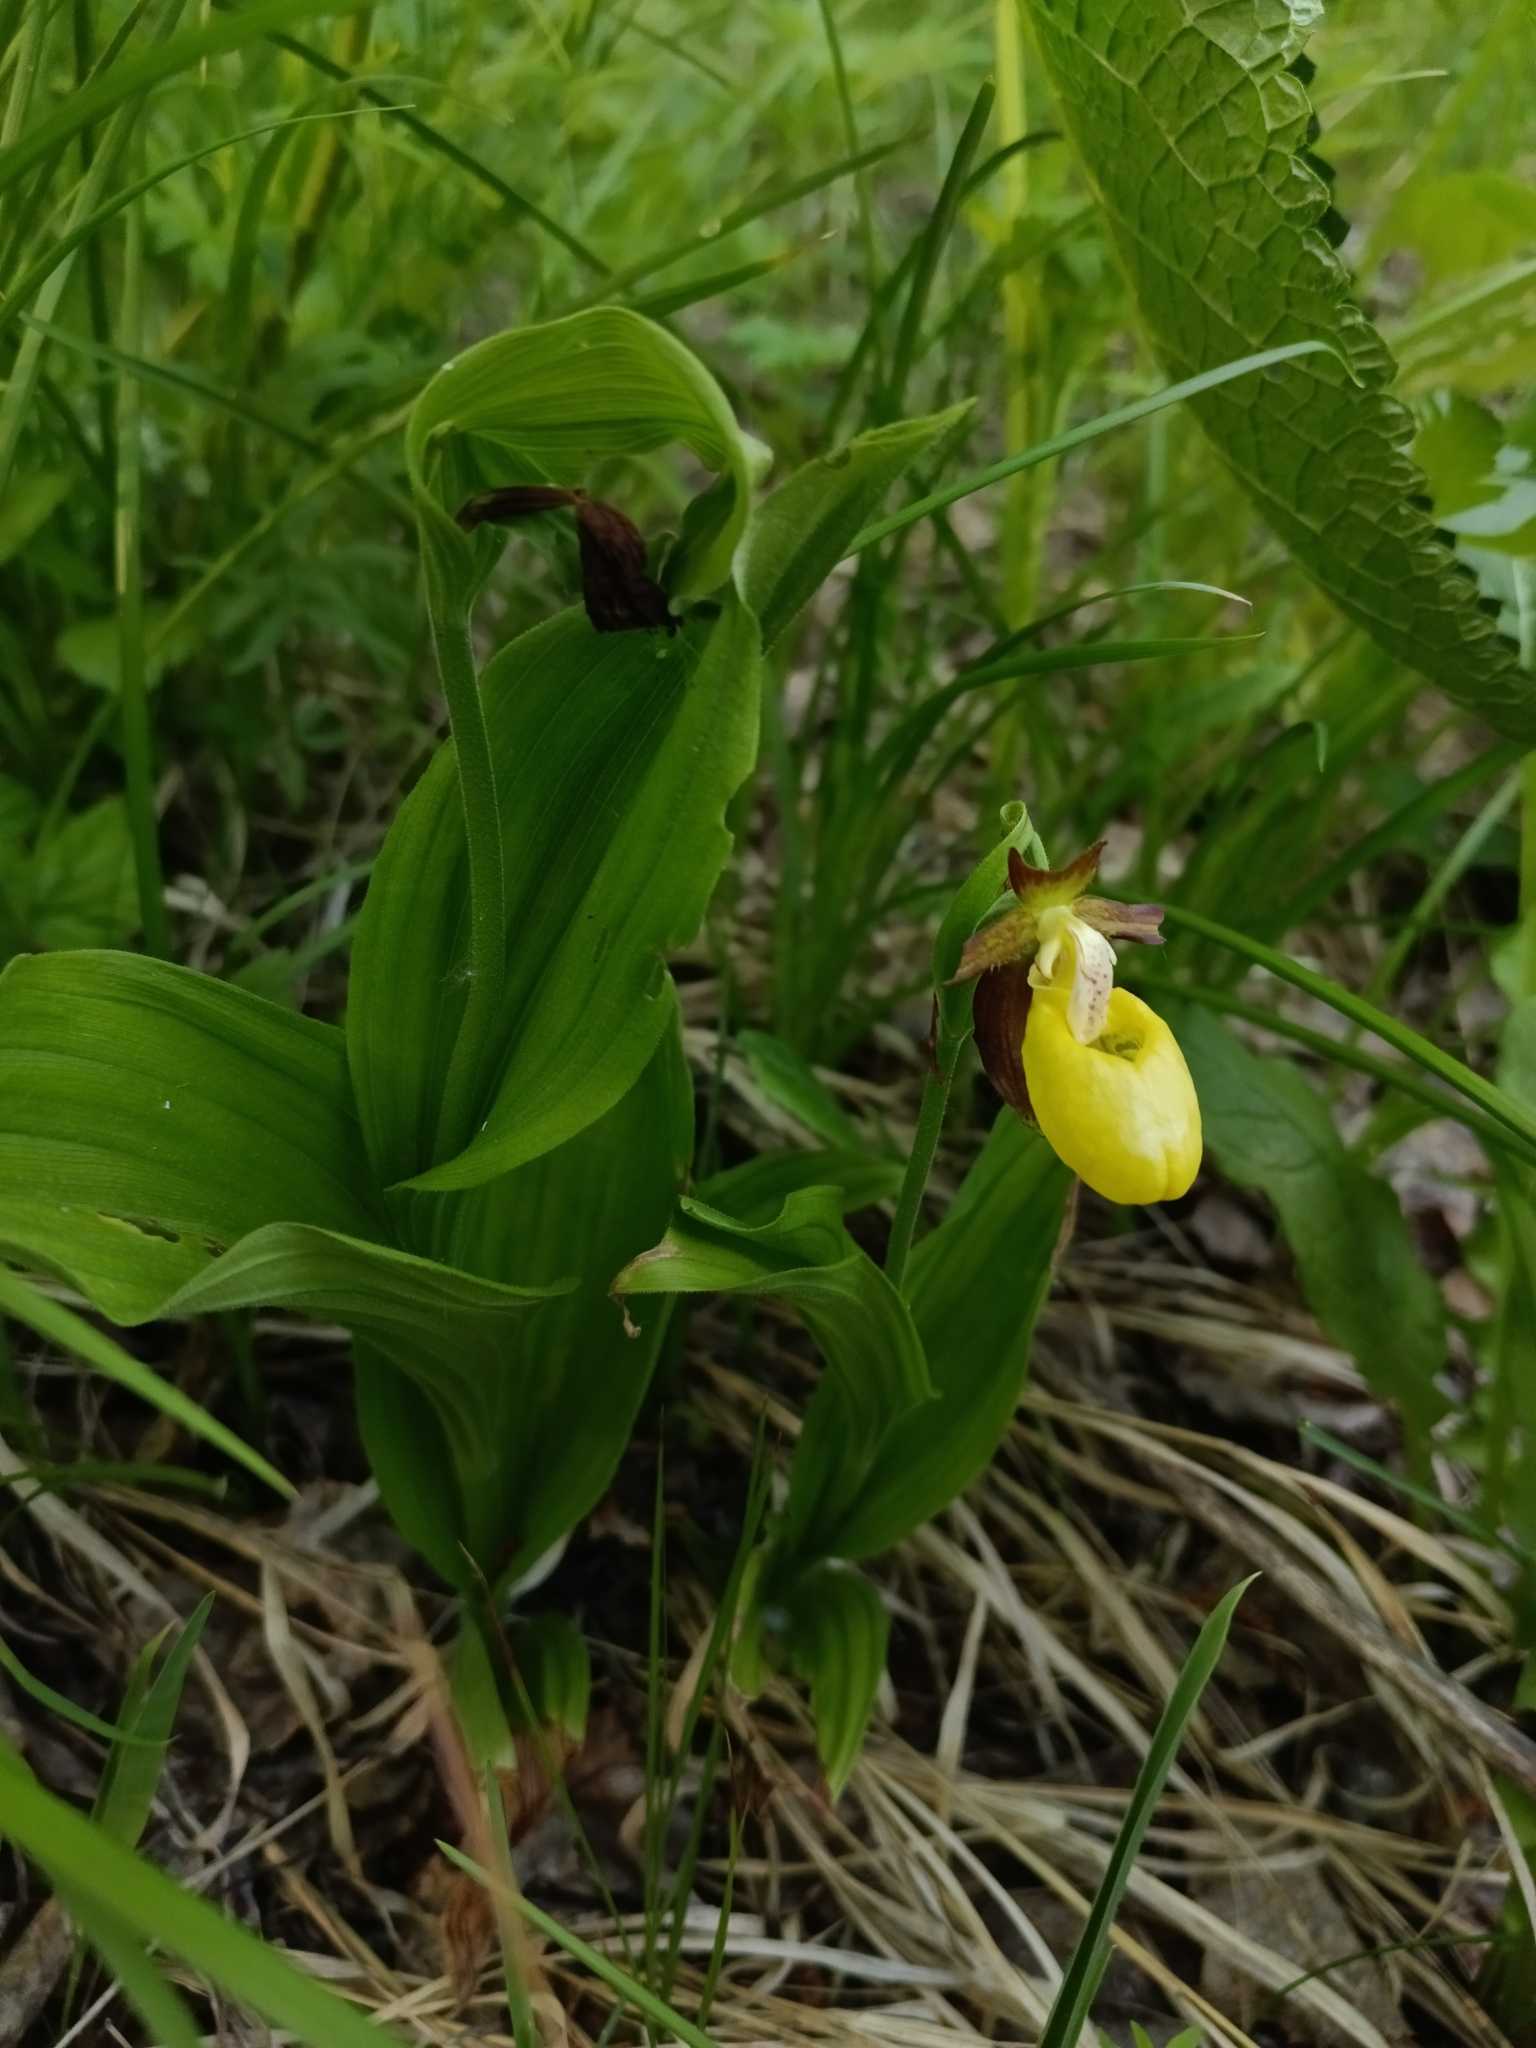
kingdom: Plantae
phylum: Tracheophyta
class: Liliopsida
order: Asparagales
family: Orchidaceae
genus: Cypripedium
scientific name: Cypripedium calceolus
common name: Lady's-slipper
